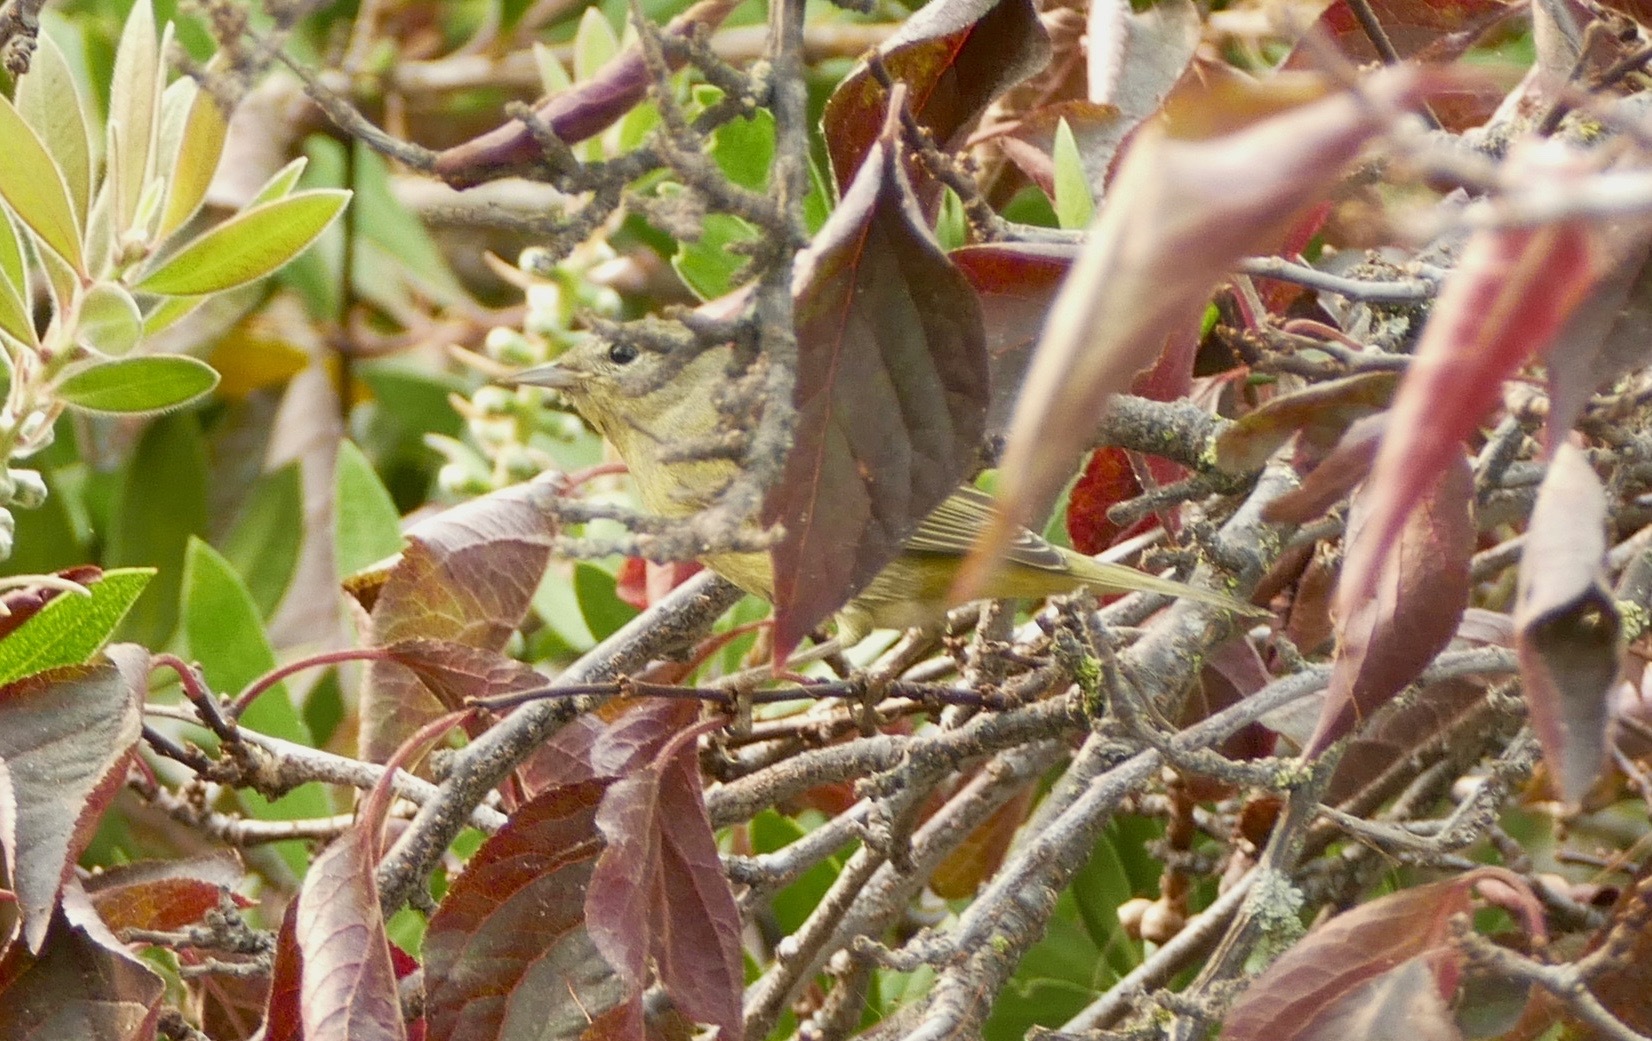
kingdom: Animalia
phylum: Chordata
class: Aves
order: Passeriformes
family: Parulidae
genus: Leiothlypis
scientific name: Leiothlypis celata
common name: Orange-crowned warbler
